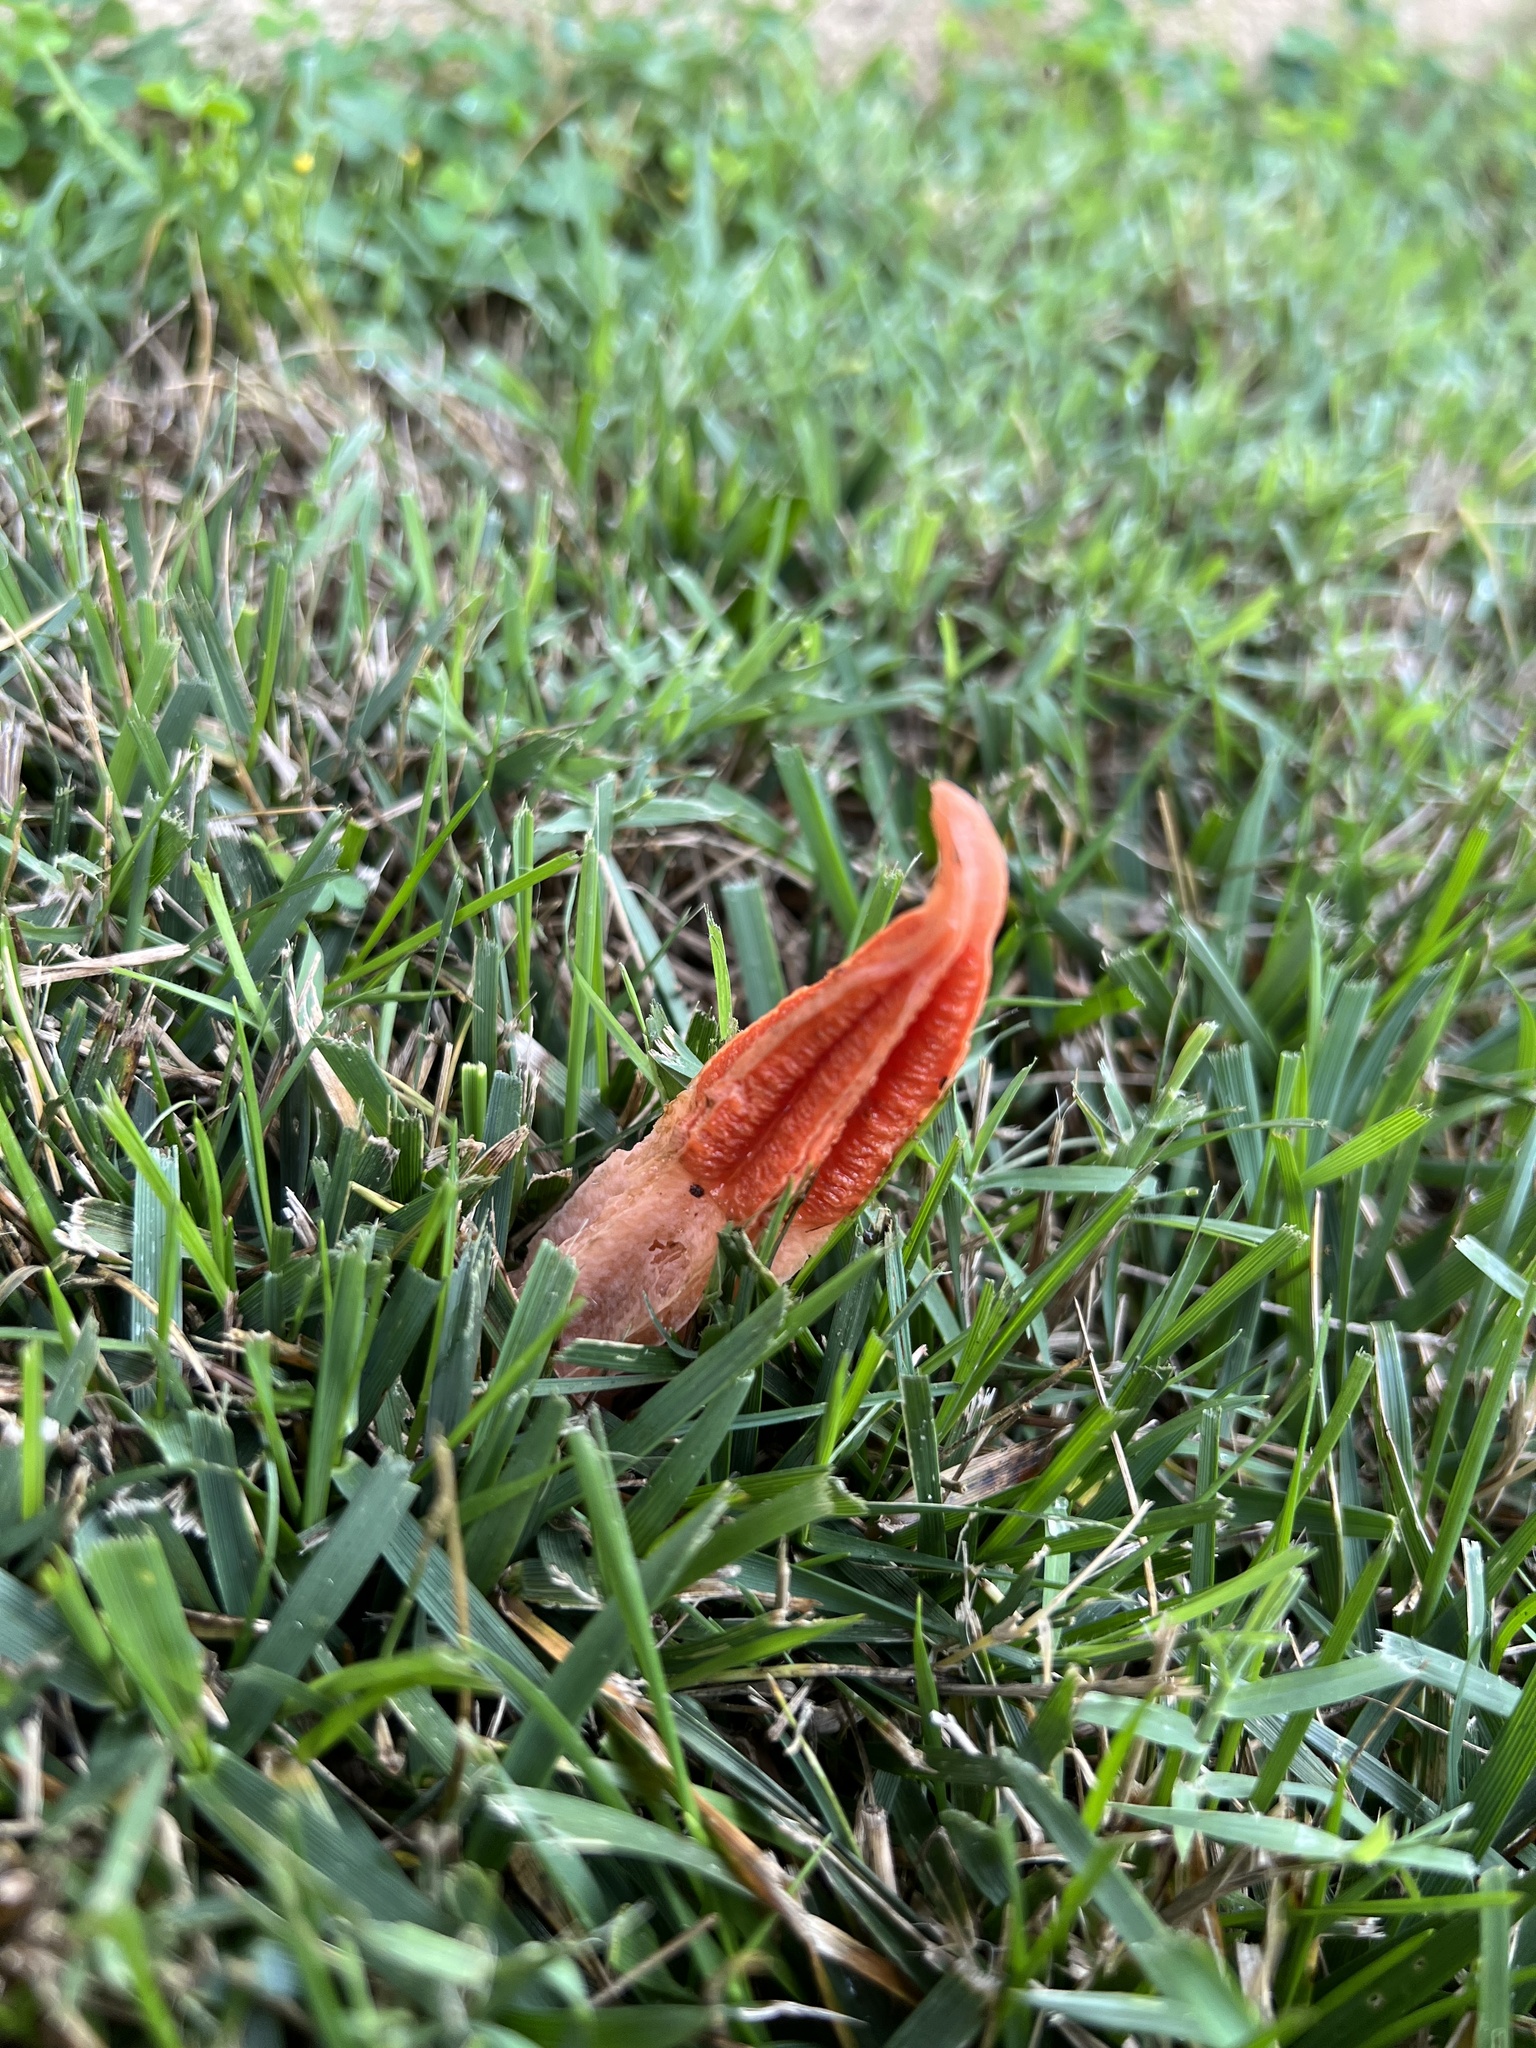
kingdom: Fungi
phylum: Basidiomycota
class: Agaricomycetes
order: Phallales
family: Phallaceae
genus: Lysurus
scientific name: Lysurus mokusin
